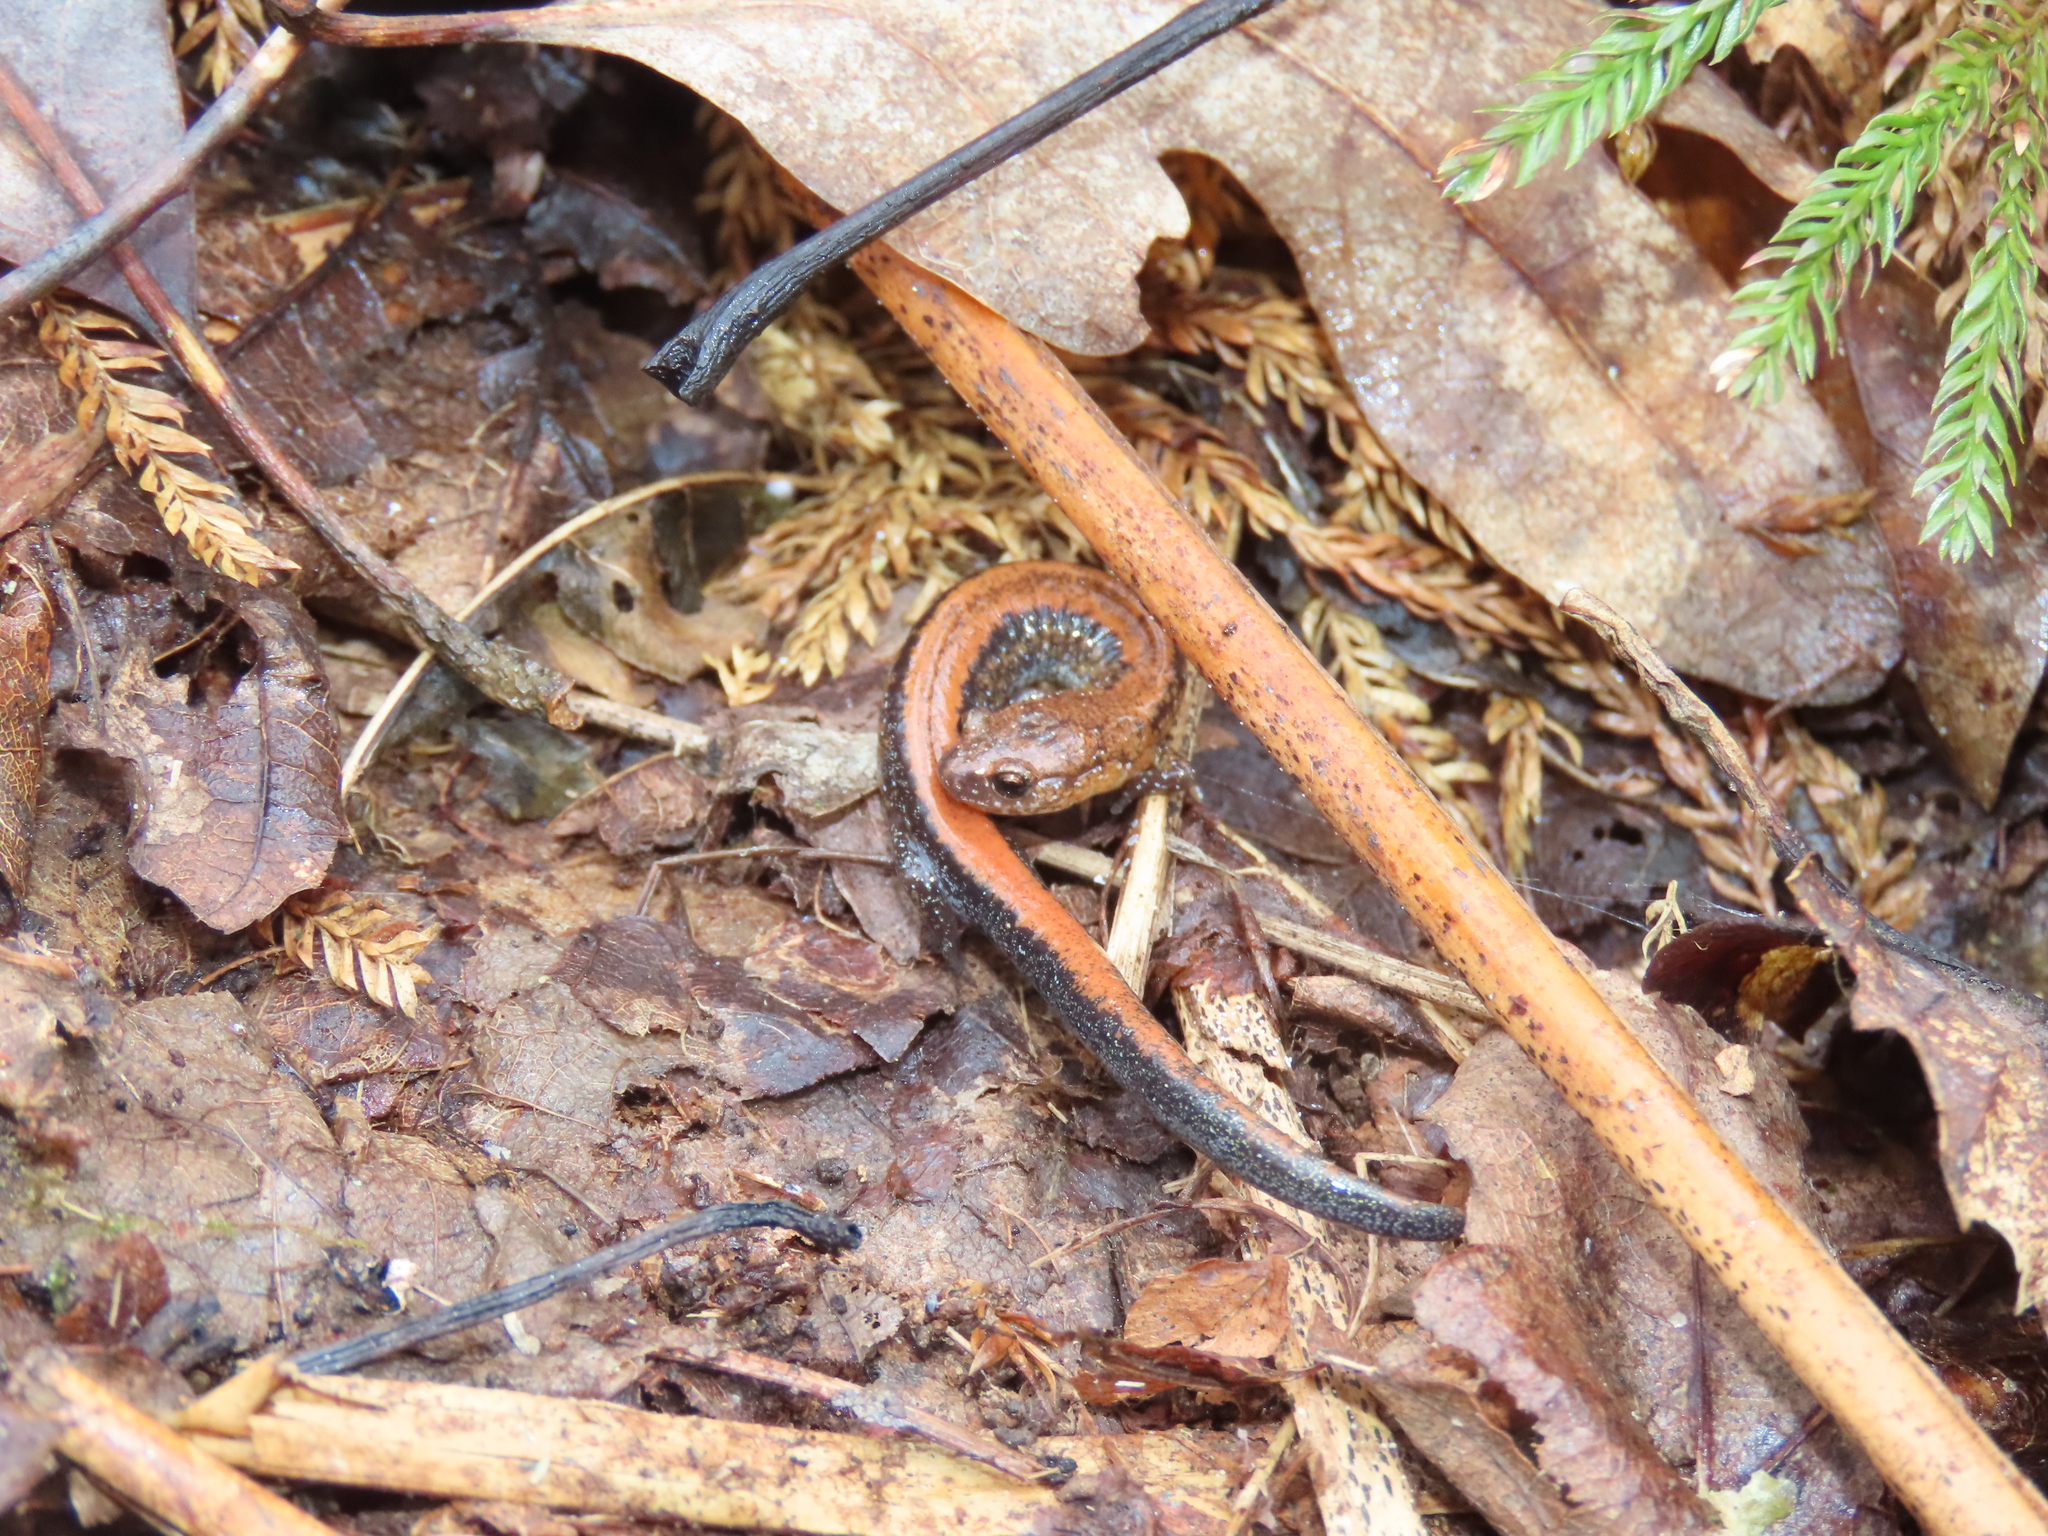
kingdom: Animalia
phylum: Chordata
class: Amphibia
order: Caudata
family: Plethodontidae
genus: Plethodon
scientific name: Plethodon cinereus
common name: Redback salamander
